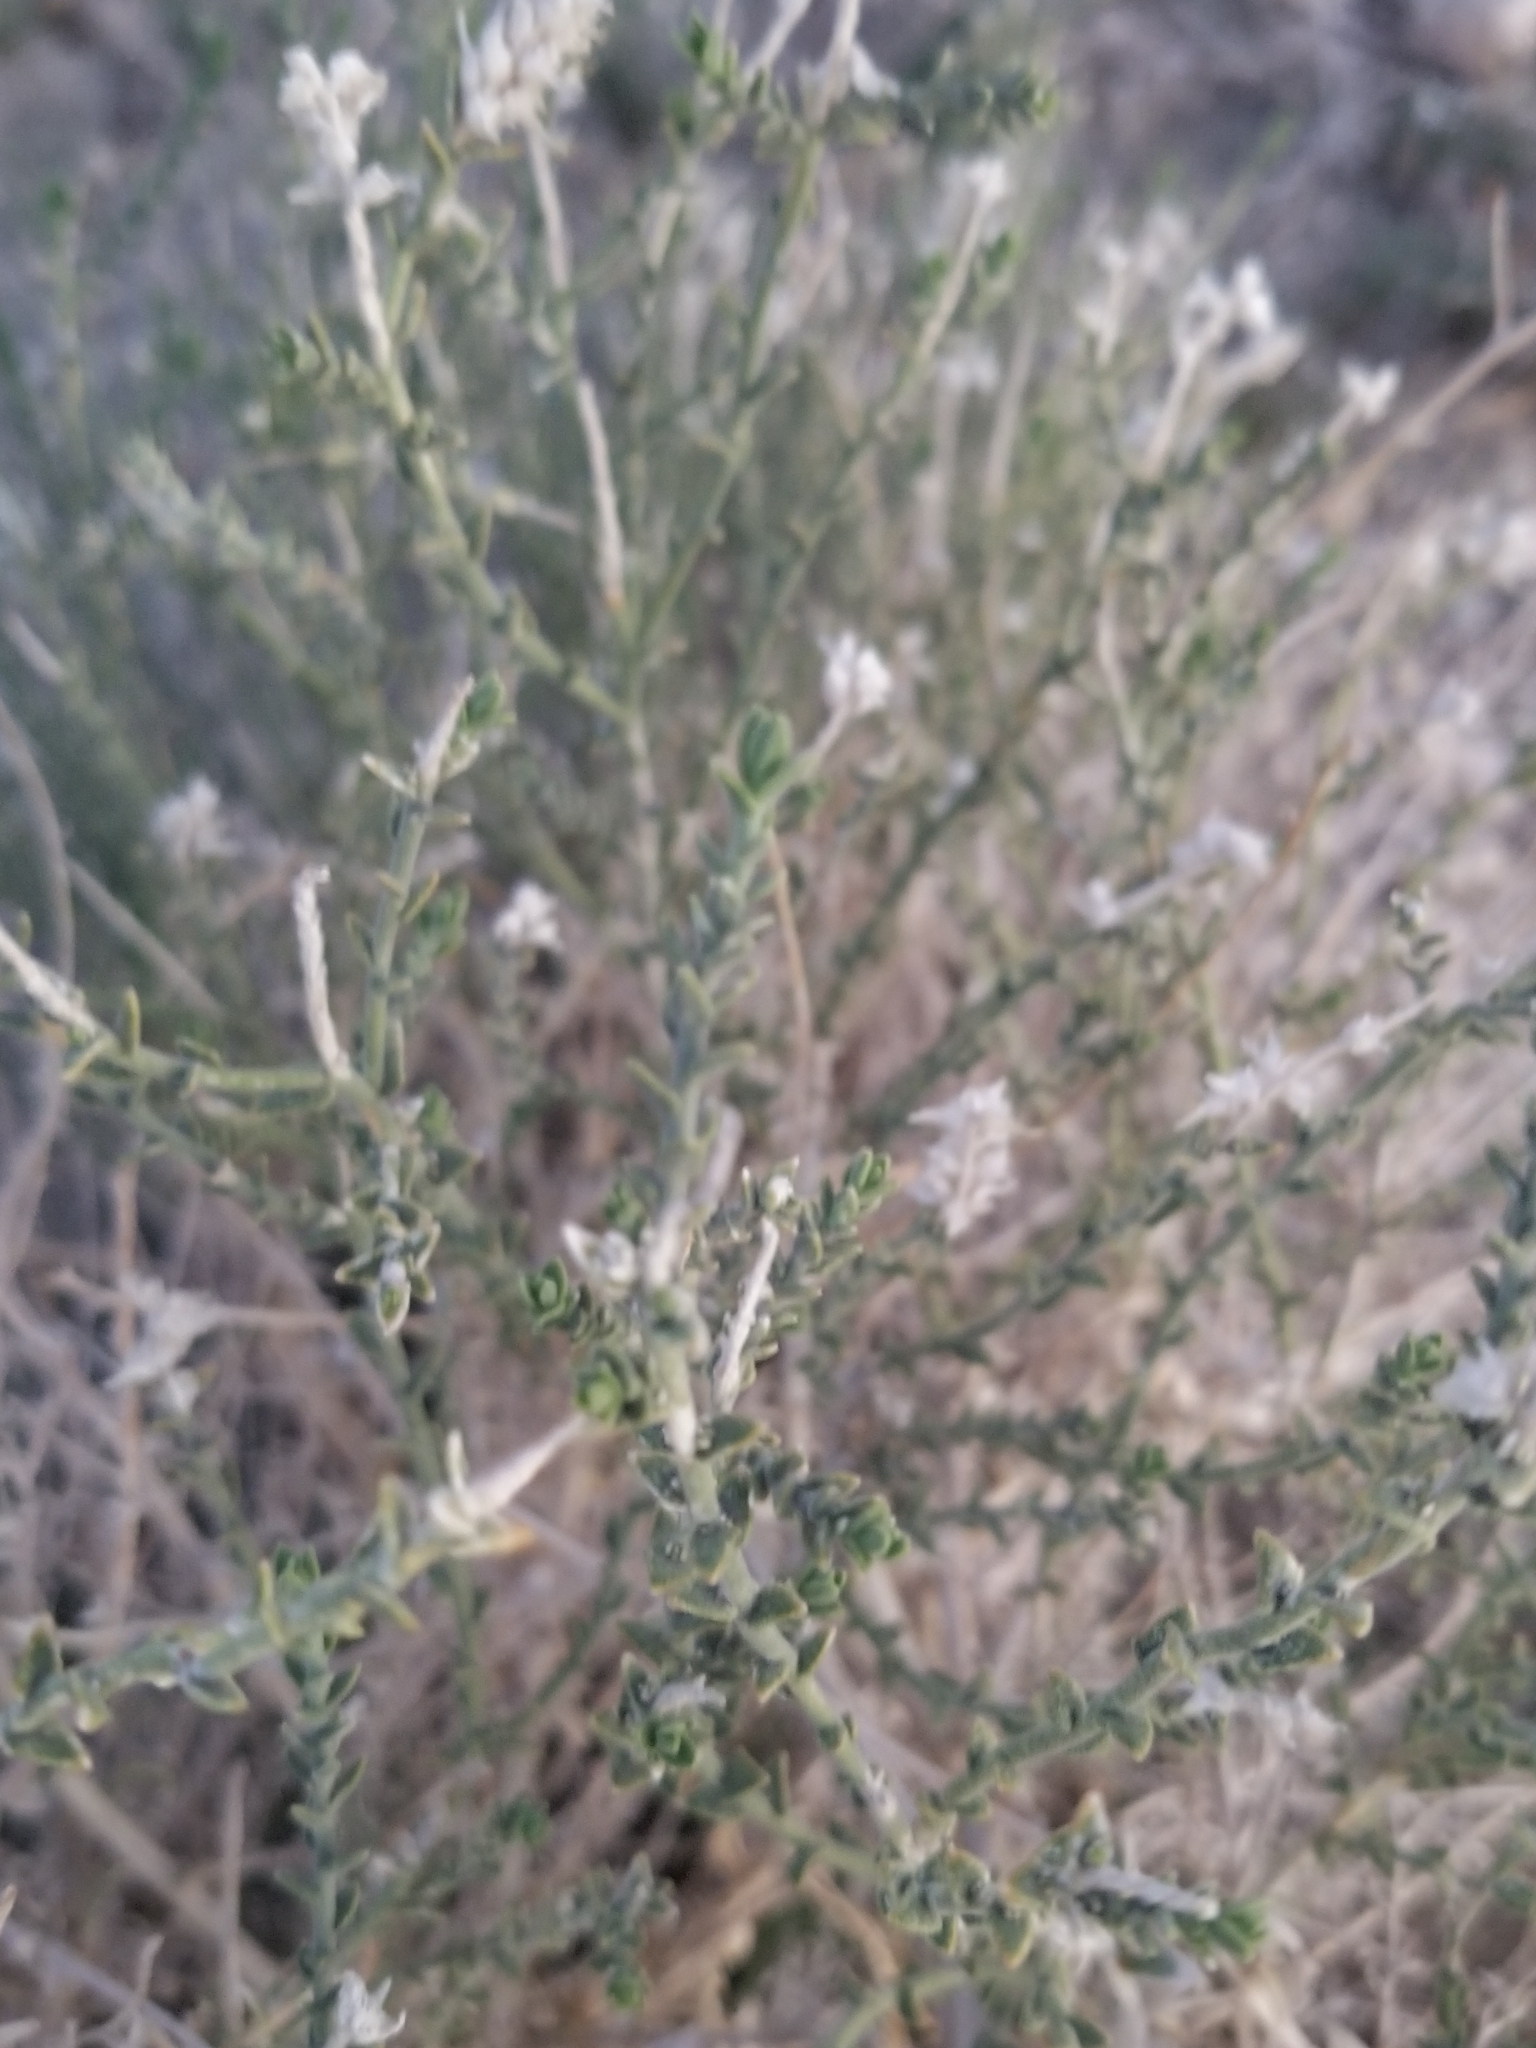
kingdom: Plantae
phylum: Tracheophyta
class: Magnoliopsida
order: Cornales
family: Loasaceae
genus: Petalonyx
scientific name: Petalonyx thurberi
